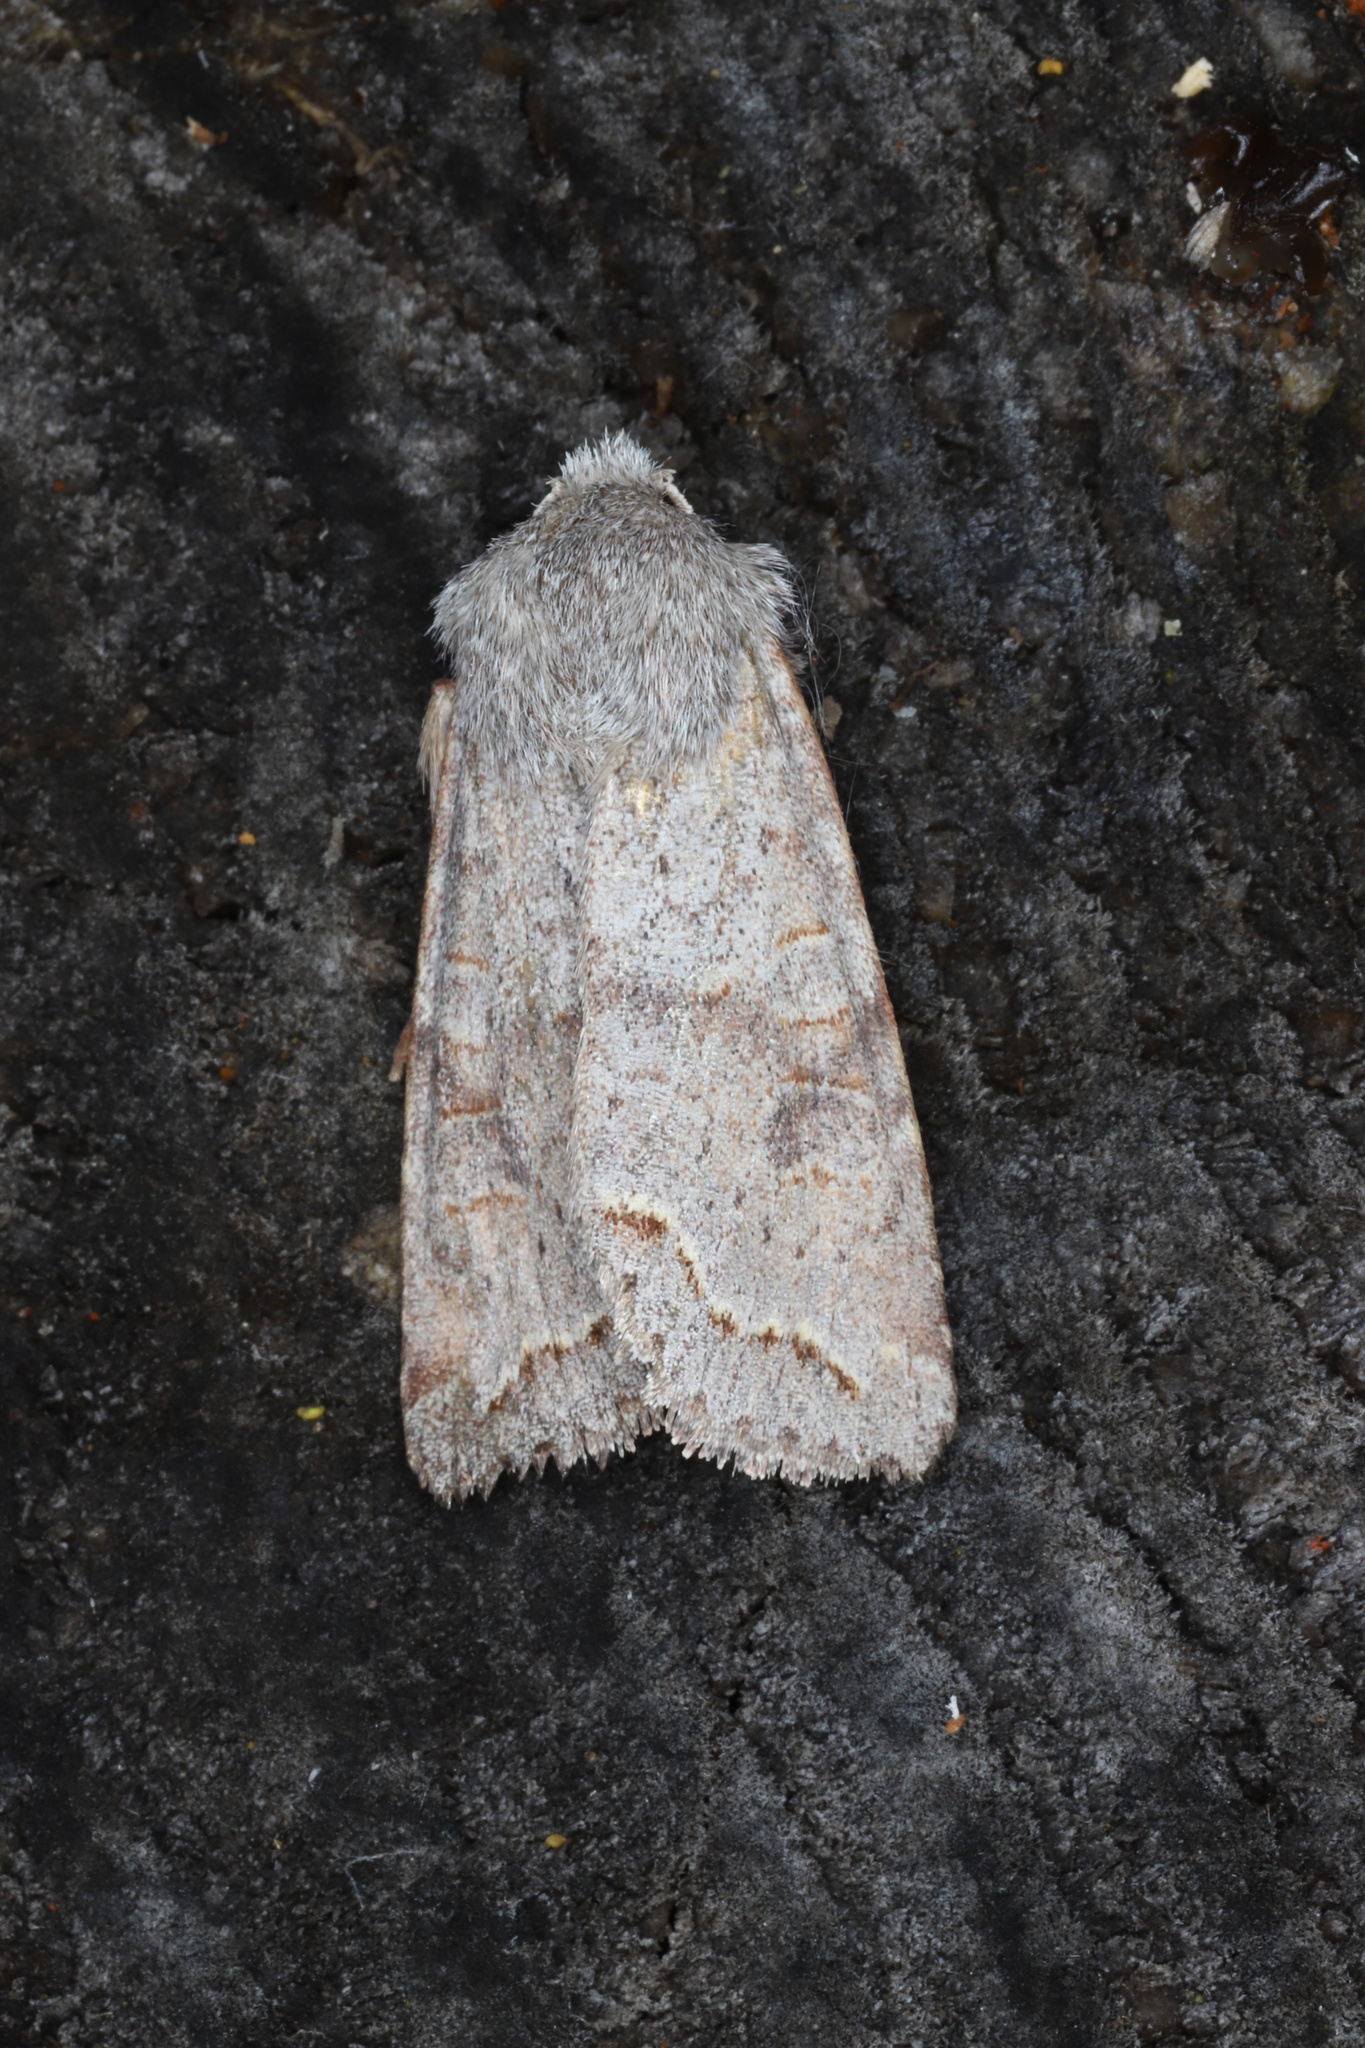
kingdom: Animalia
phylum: Arthropoda
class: Insecta
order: Lepidoptera
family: Noctuidae
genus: Orthosia
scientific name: Orthosia revicta
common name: Rusty whitesided caterpillar
